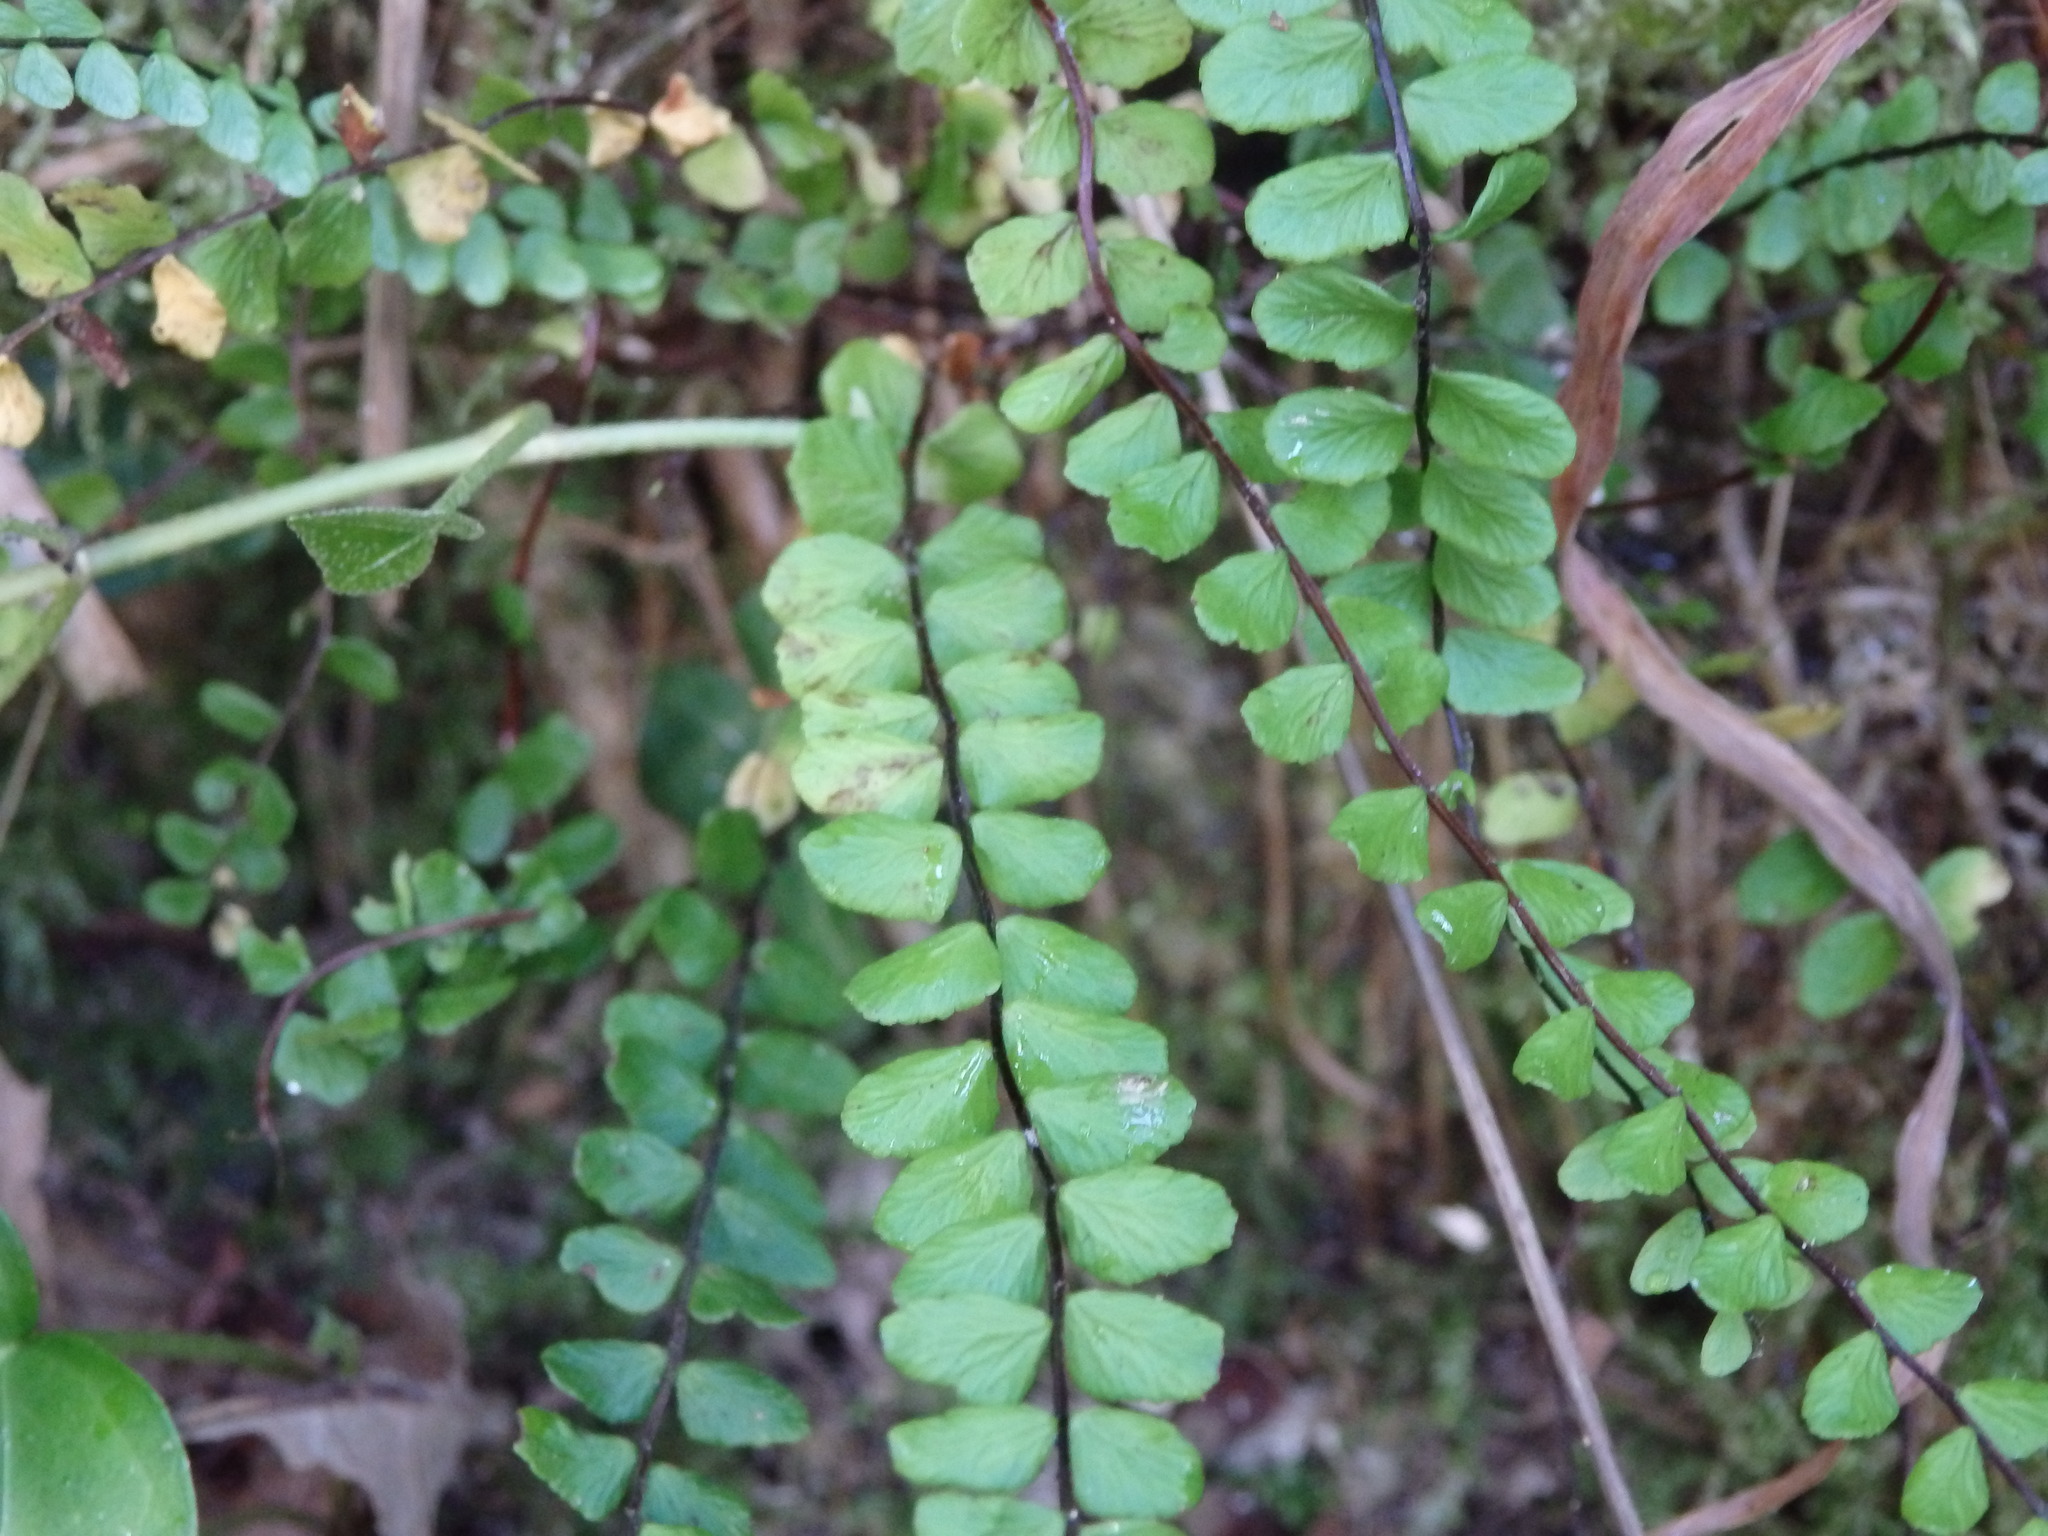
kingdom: Plantae
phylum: Tracheophyta
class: Polypodiopsida
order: Polypodiales
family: Aspleniaceae
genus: Asplenium
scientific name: Asplenium trichomanes
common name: Maidenhair spleenwort
